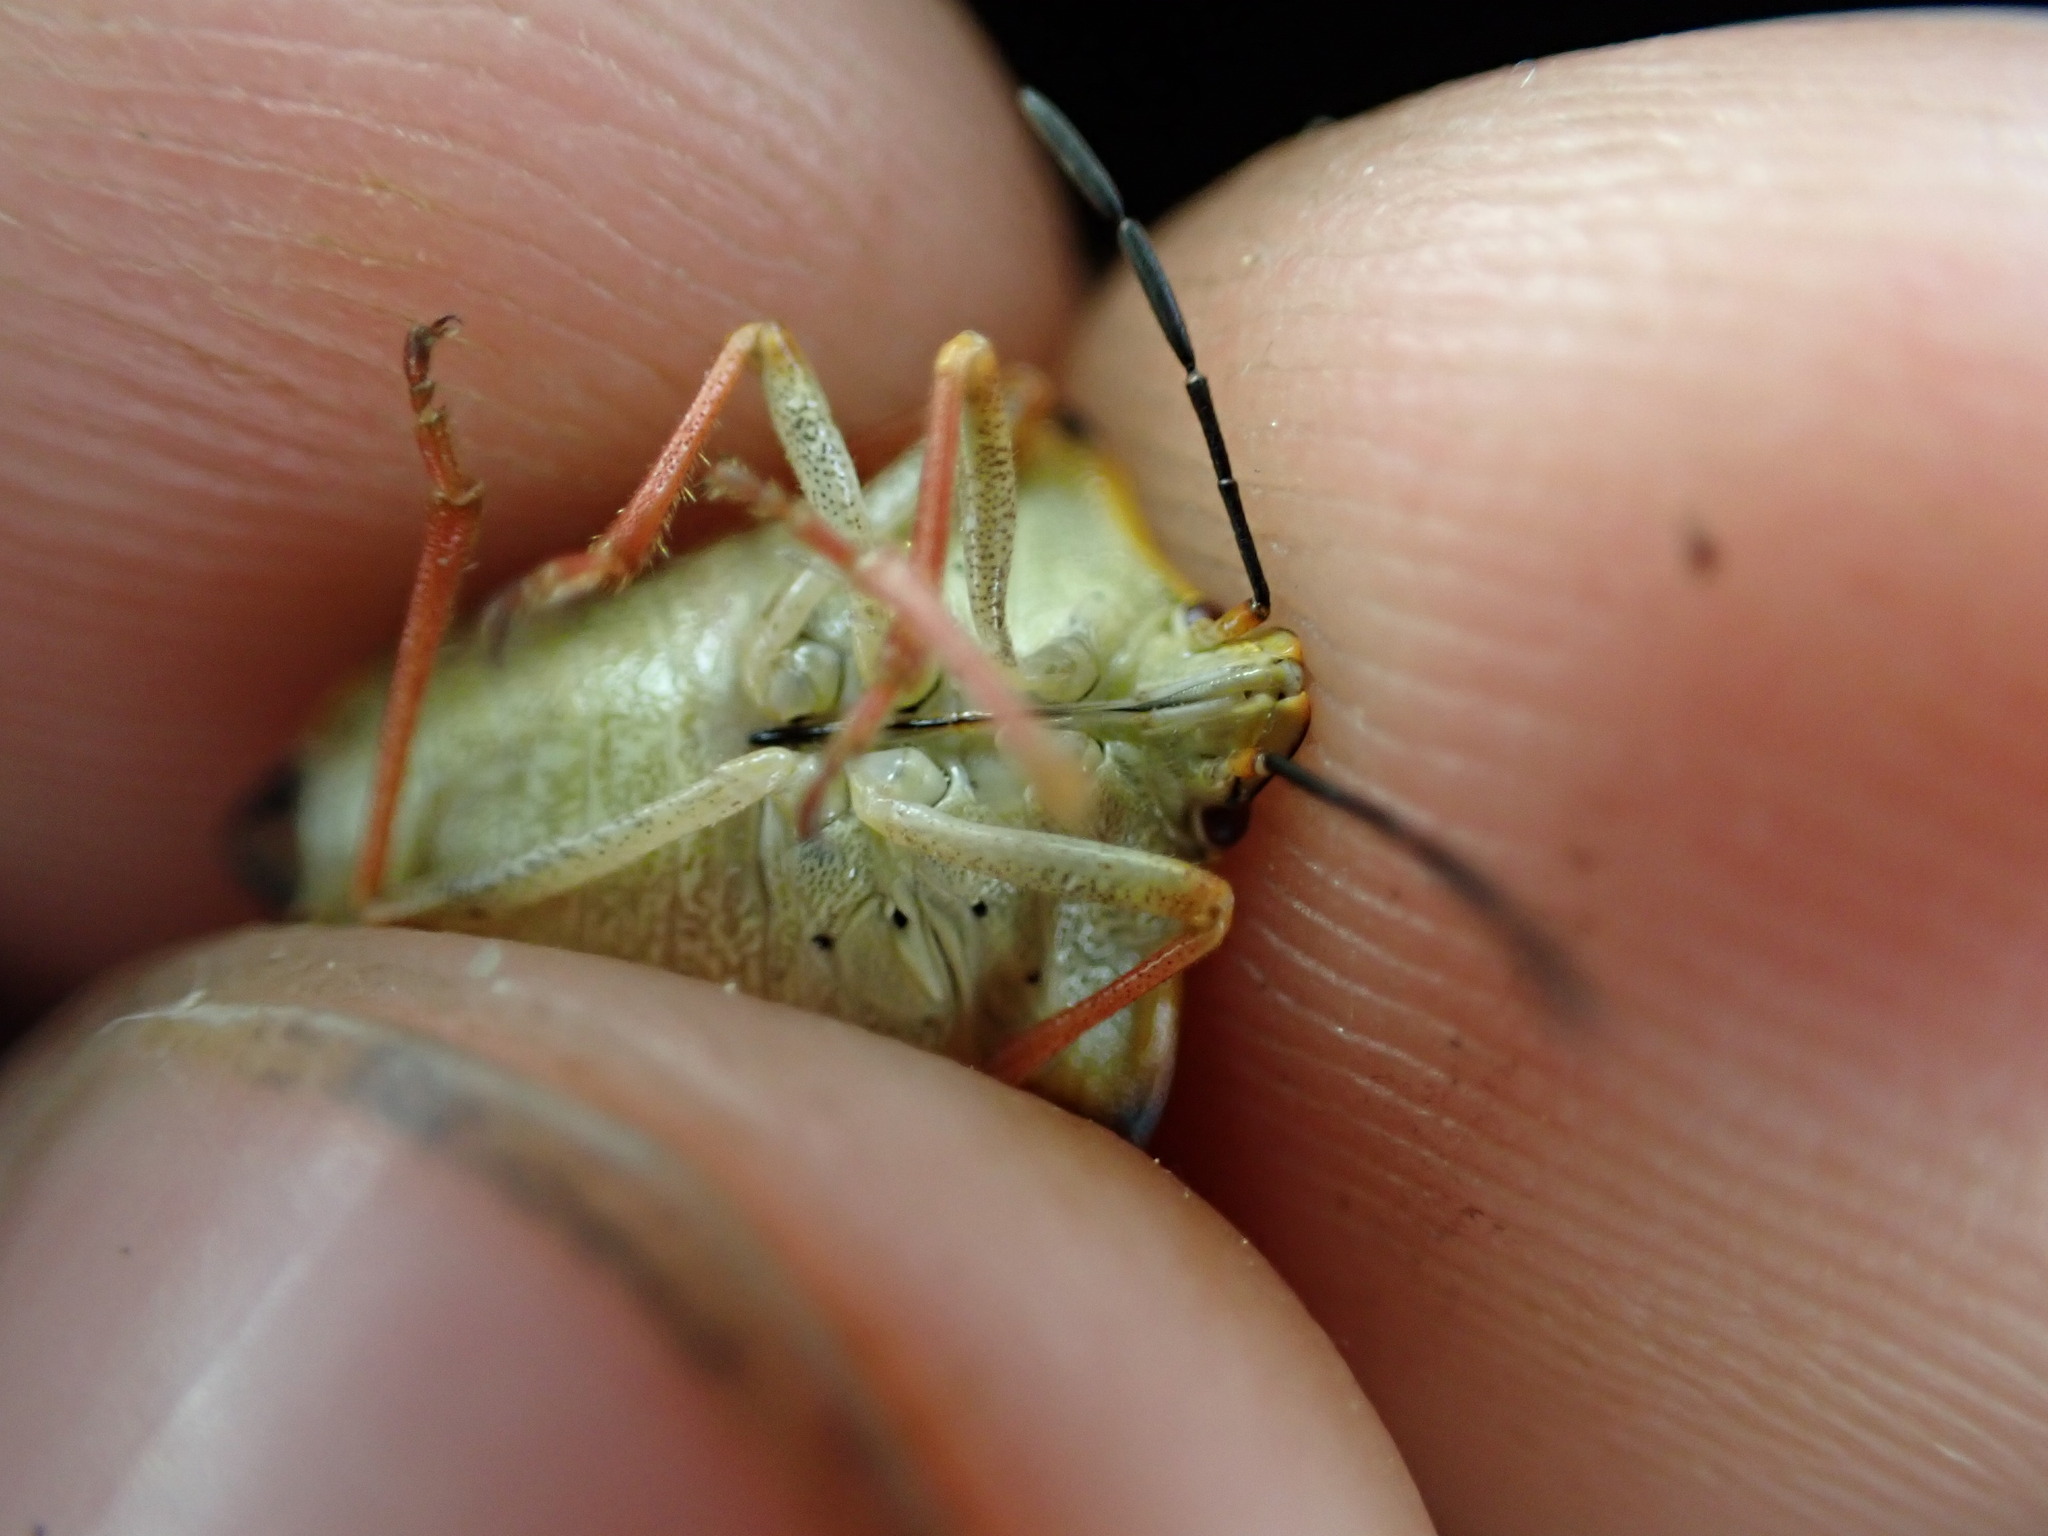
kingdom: Animalia
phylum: Arthropoda
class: Insecta
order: Hemiptera
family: Pentatomidae
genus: Carpocoris
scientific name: Carpocoris mediterraneus
